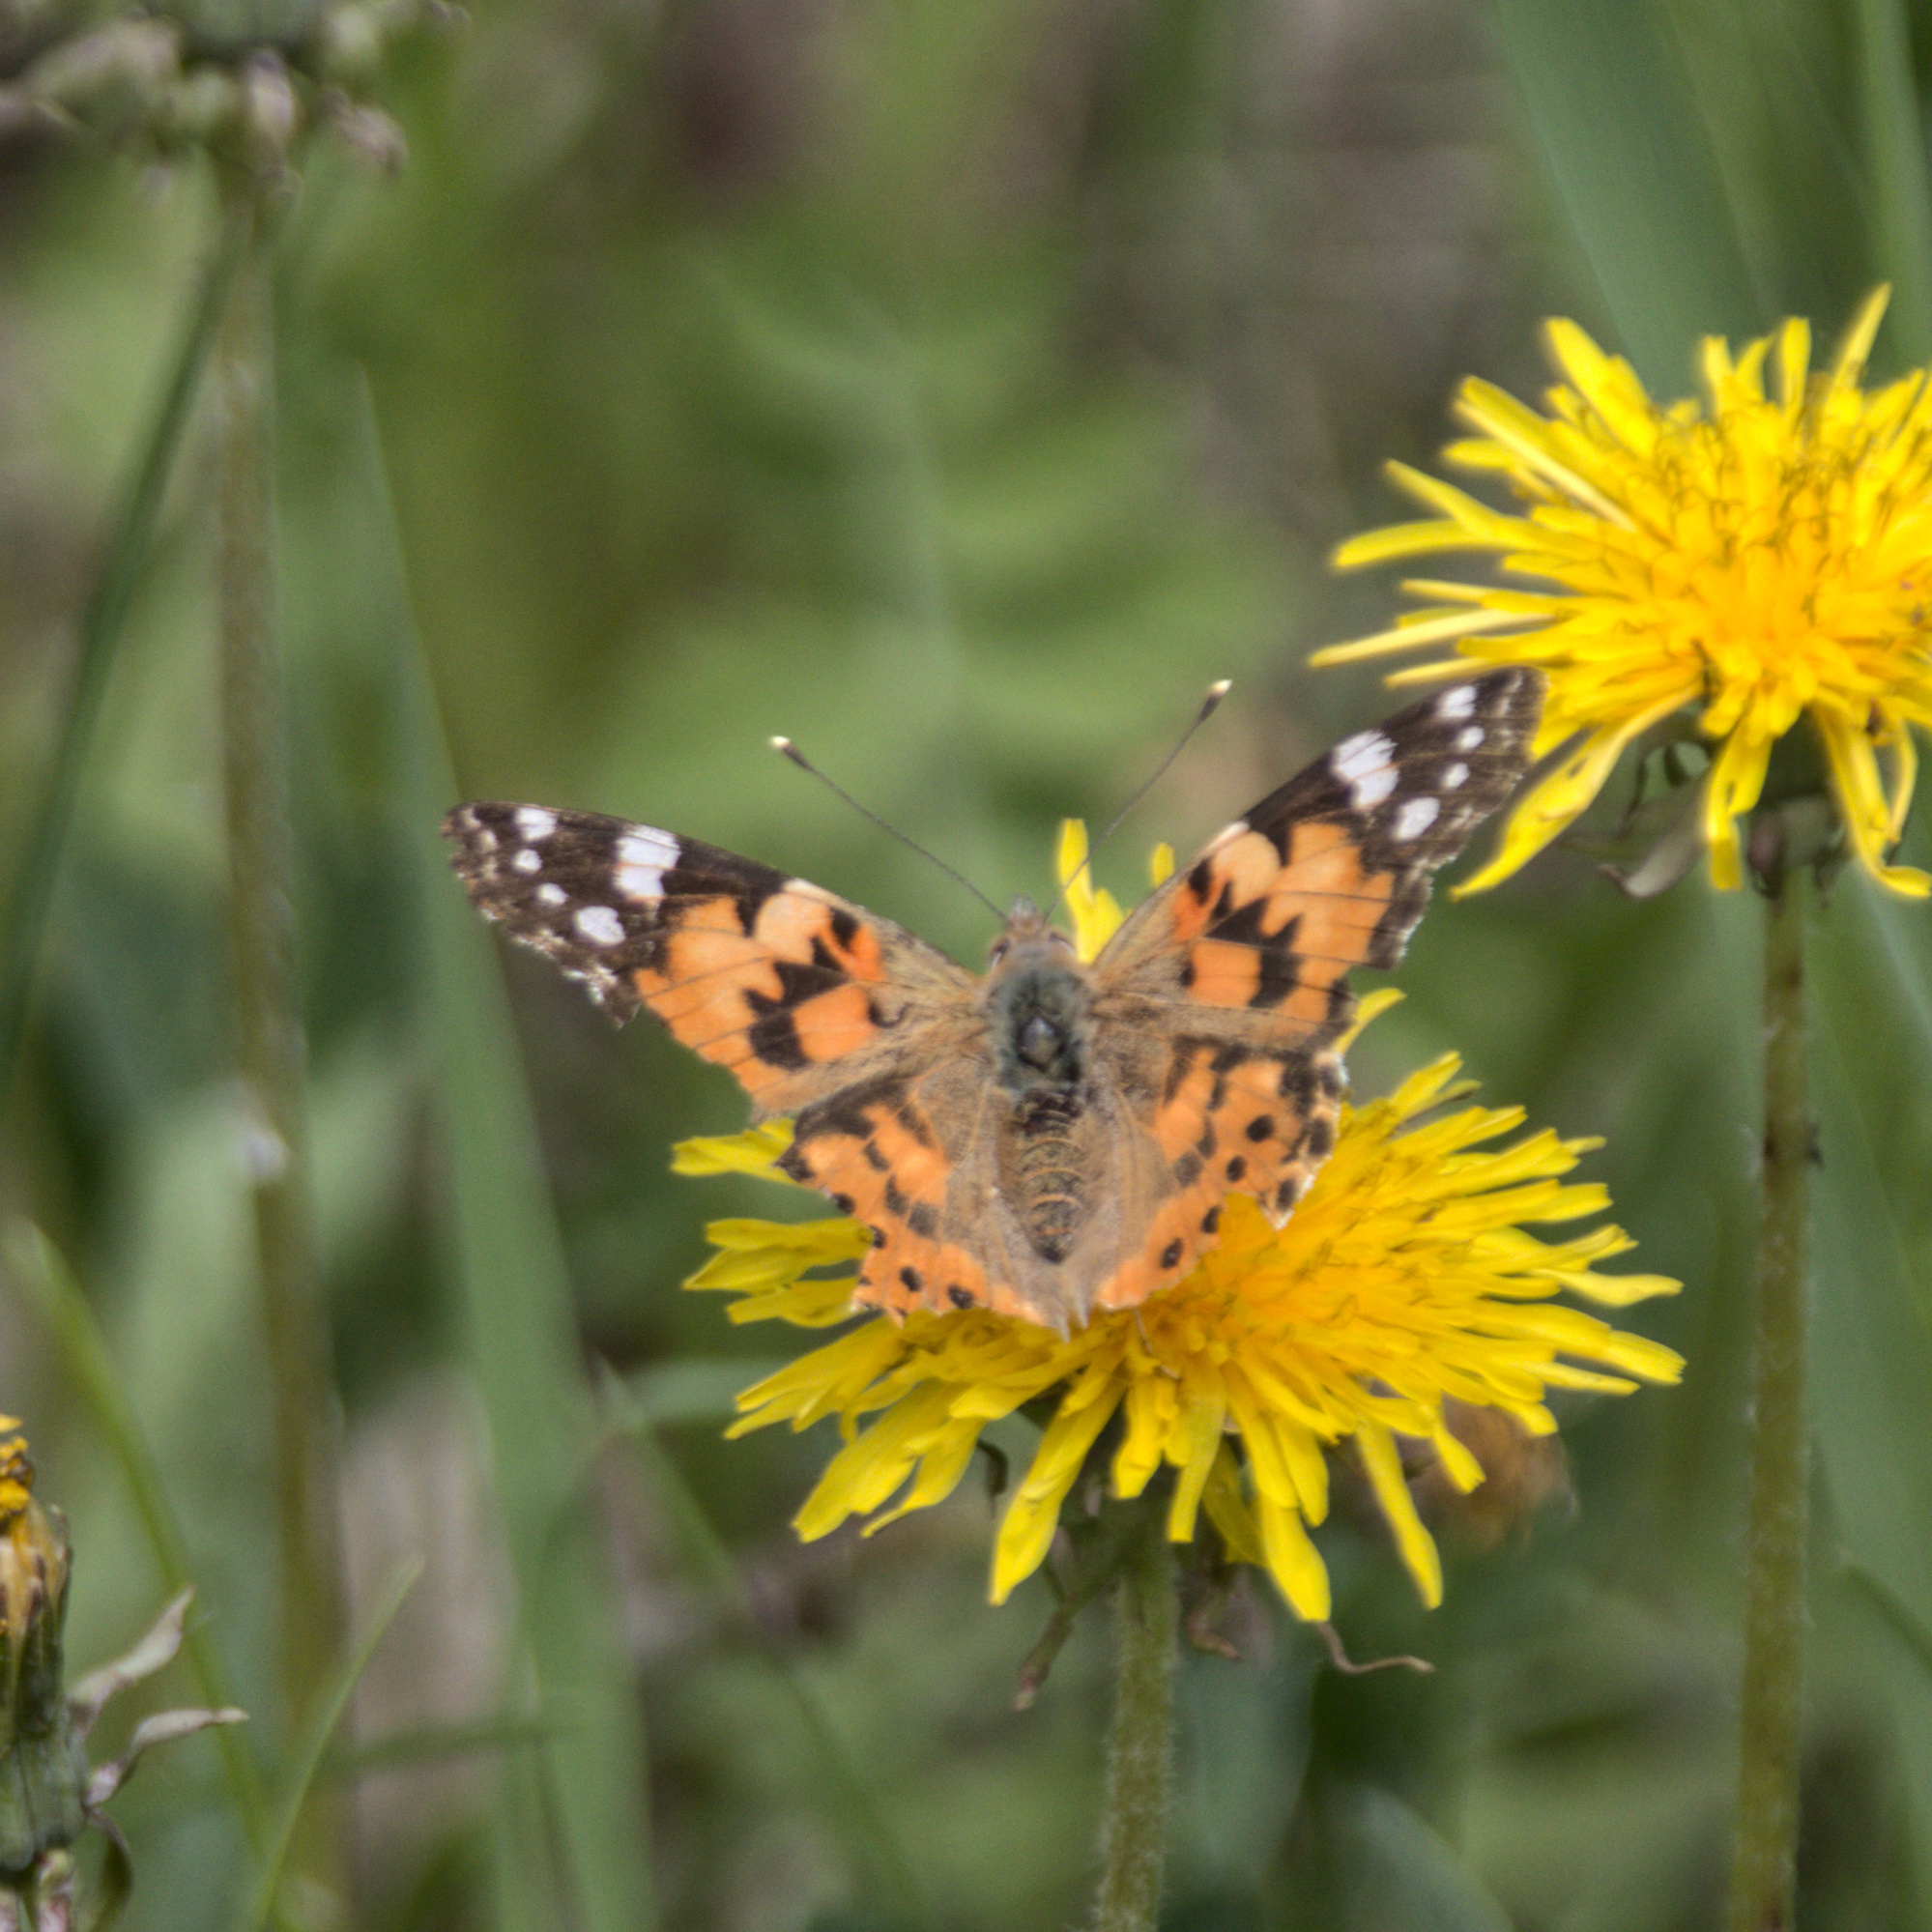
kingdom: Animalia
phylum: Arthropoda
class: Insecta
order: Lepidoptera
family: Nymphalidae
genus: Vanessa
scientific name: Vanessa cardui
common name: Painted lady
